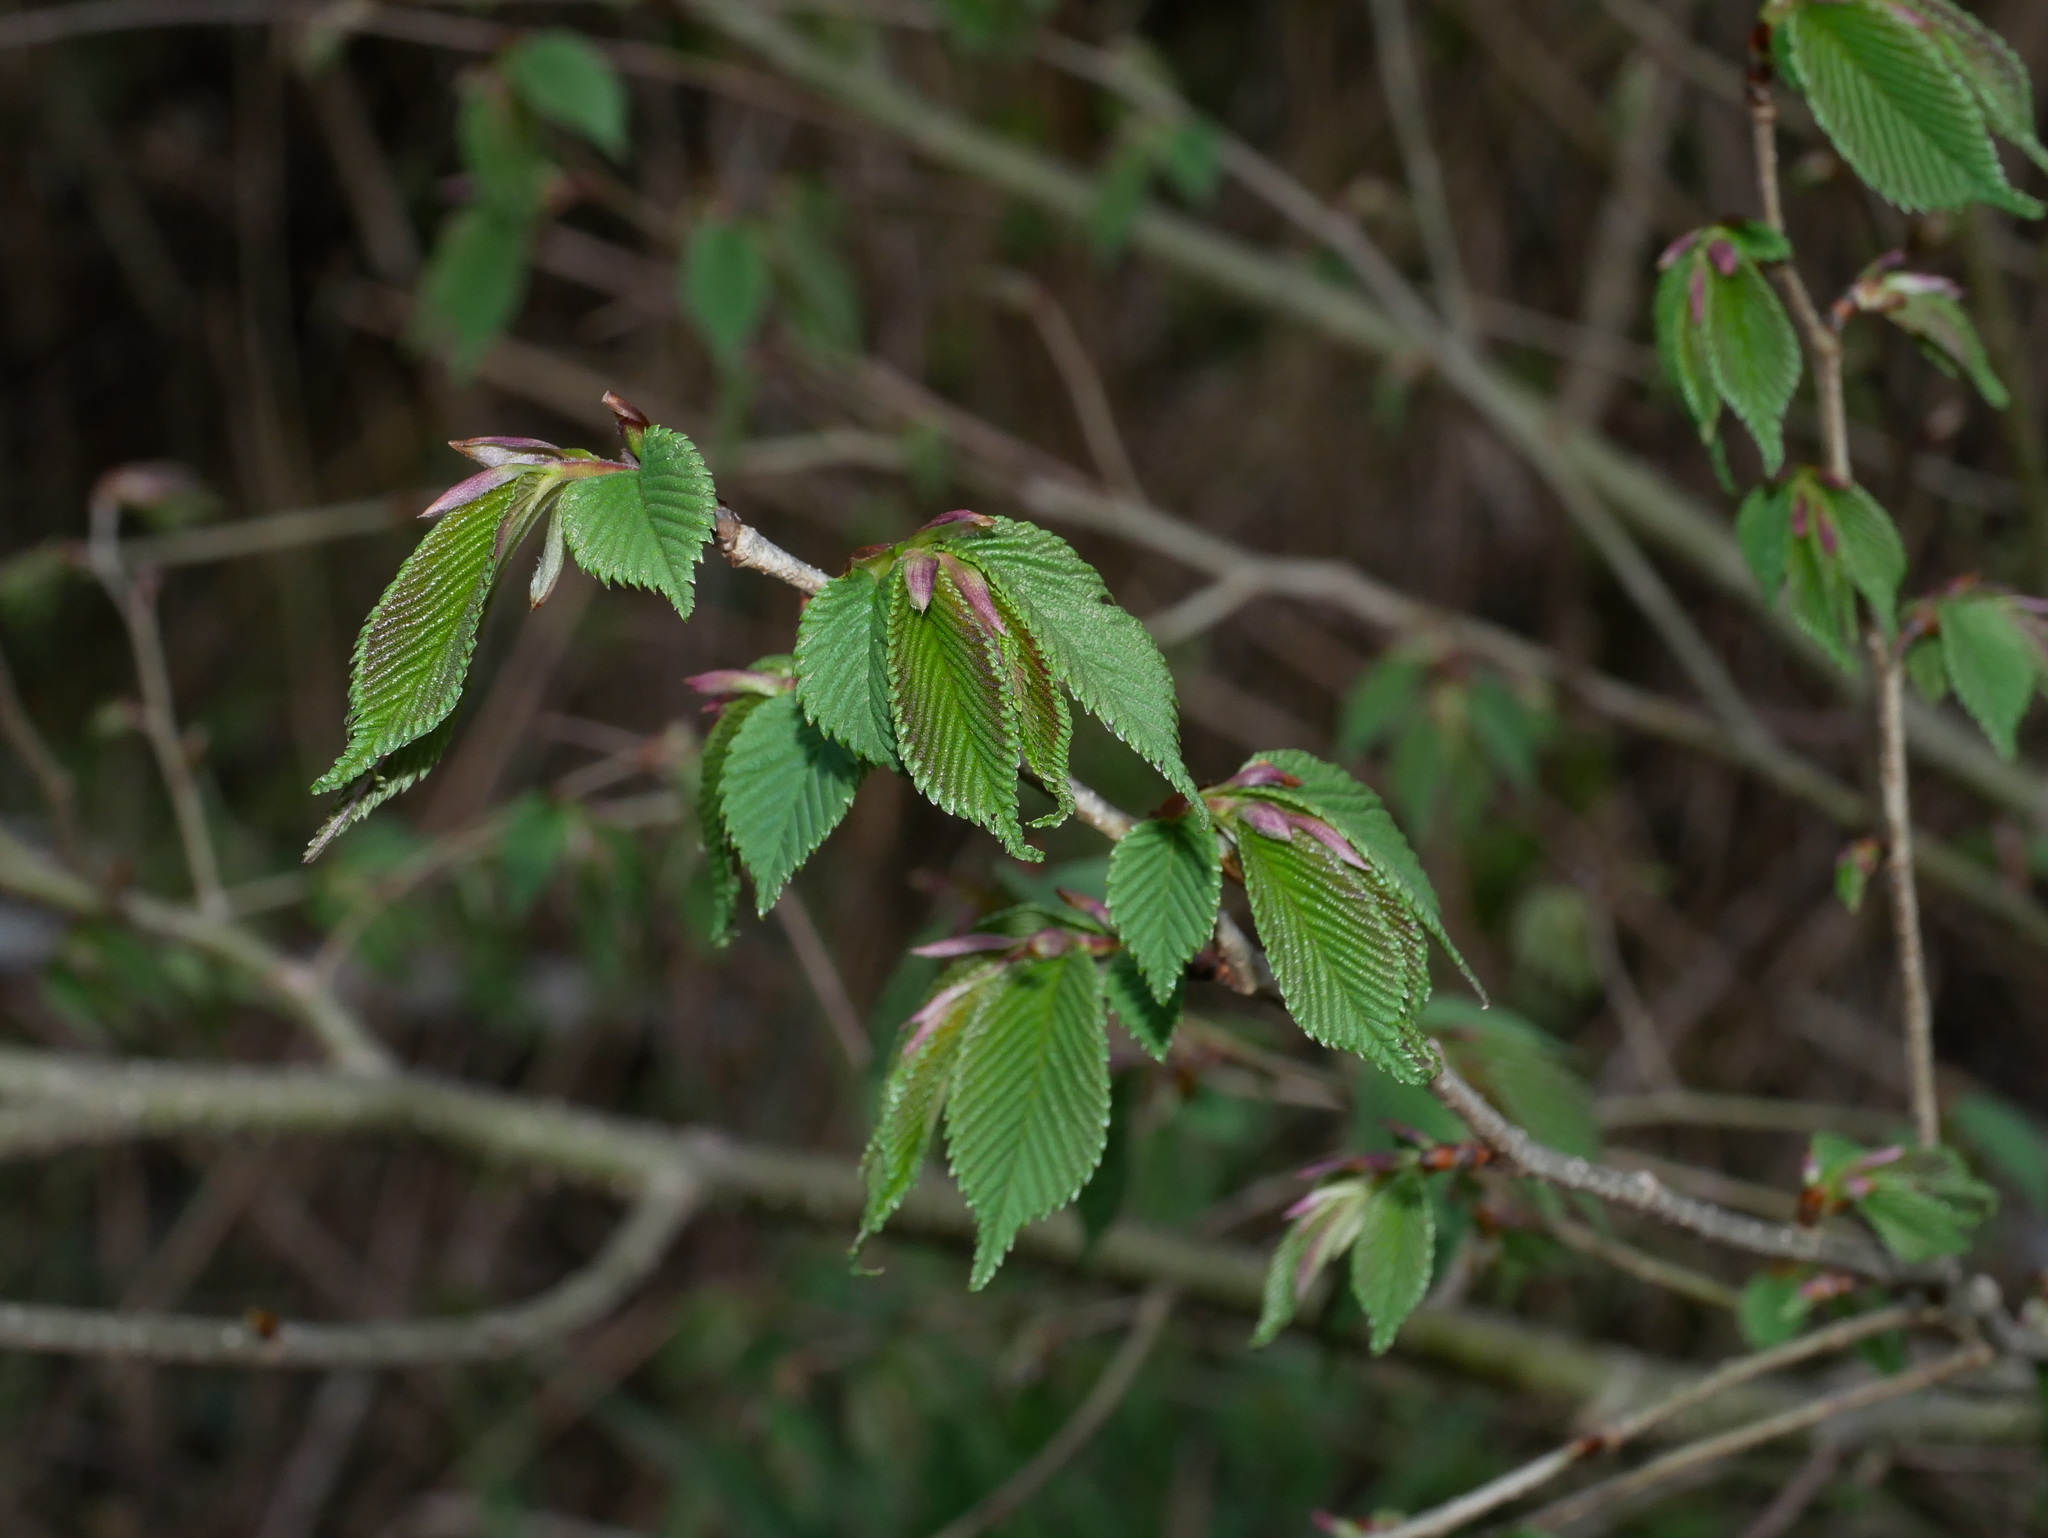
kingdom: Plantae
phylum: Tracheophyta
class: Magnoliopsida
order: Rosales
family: Ulmaceae
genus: Ulmus
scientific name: Ulmus uyematsui
